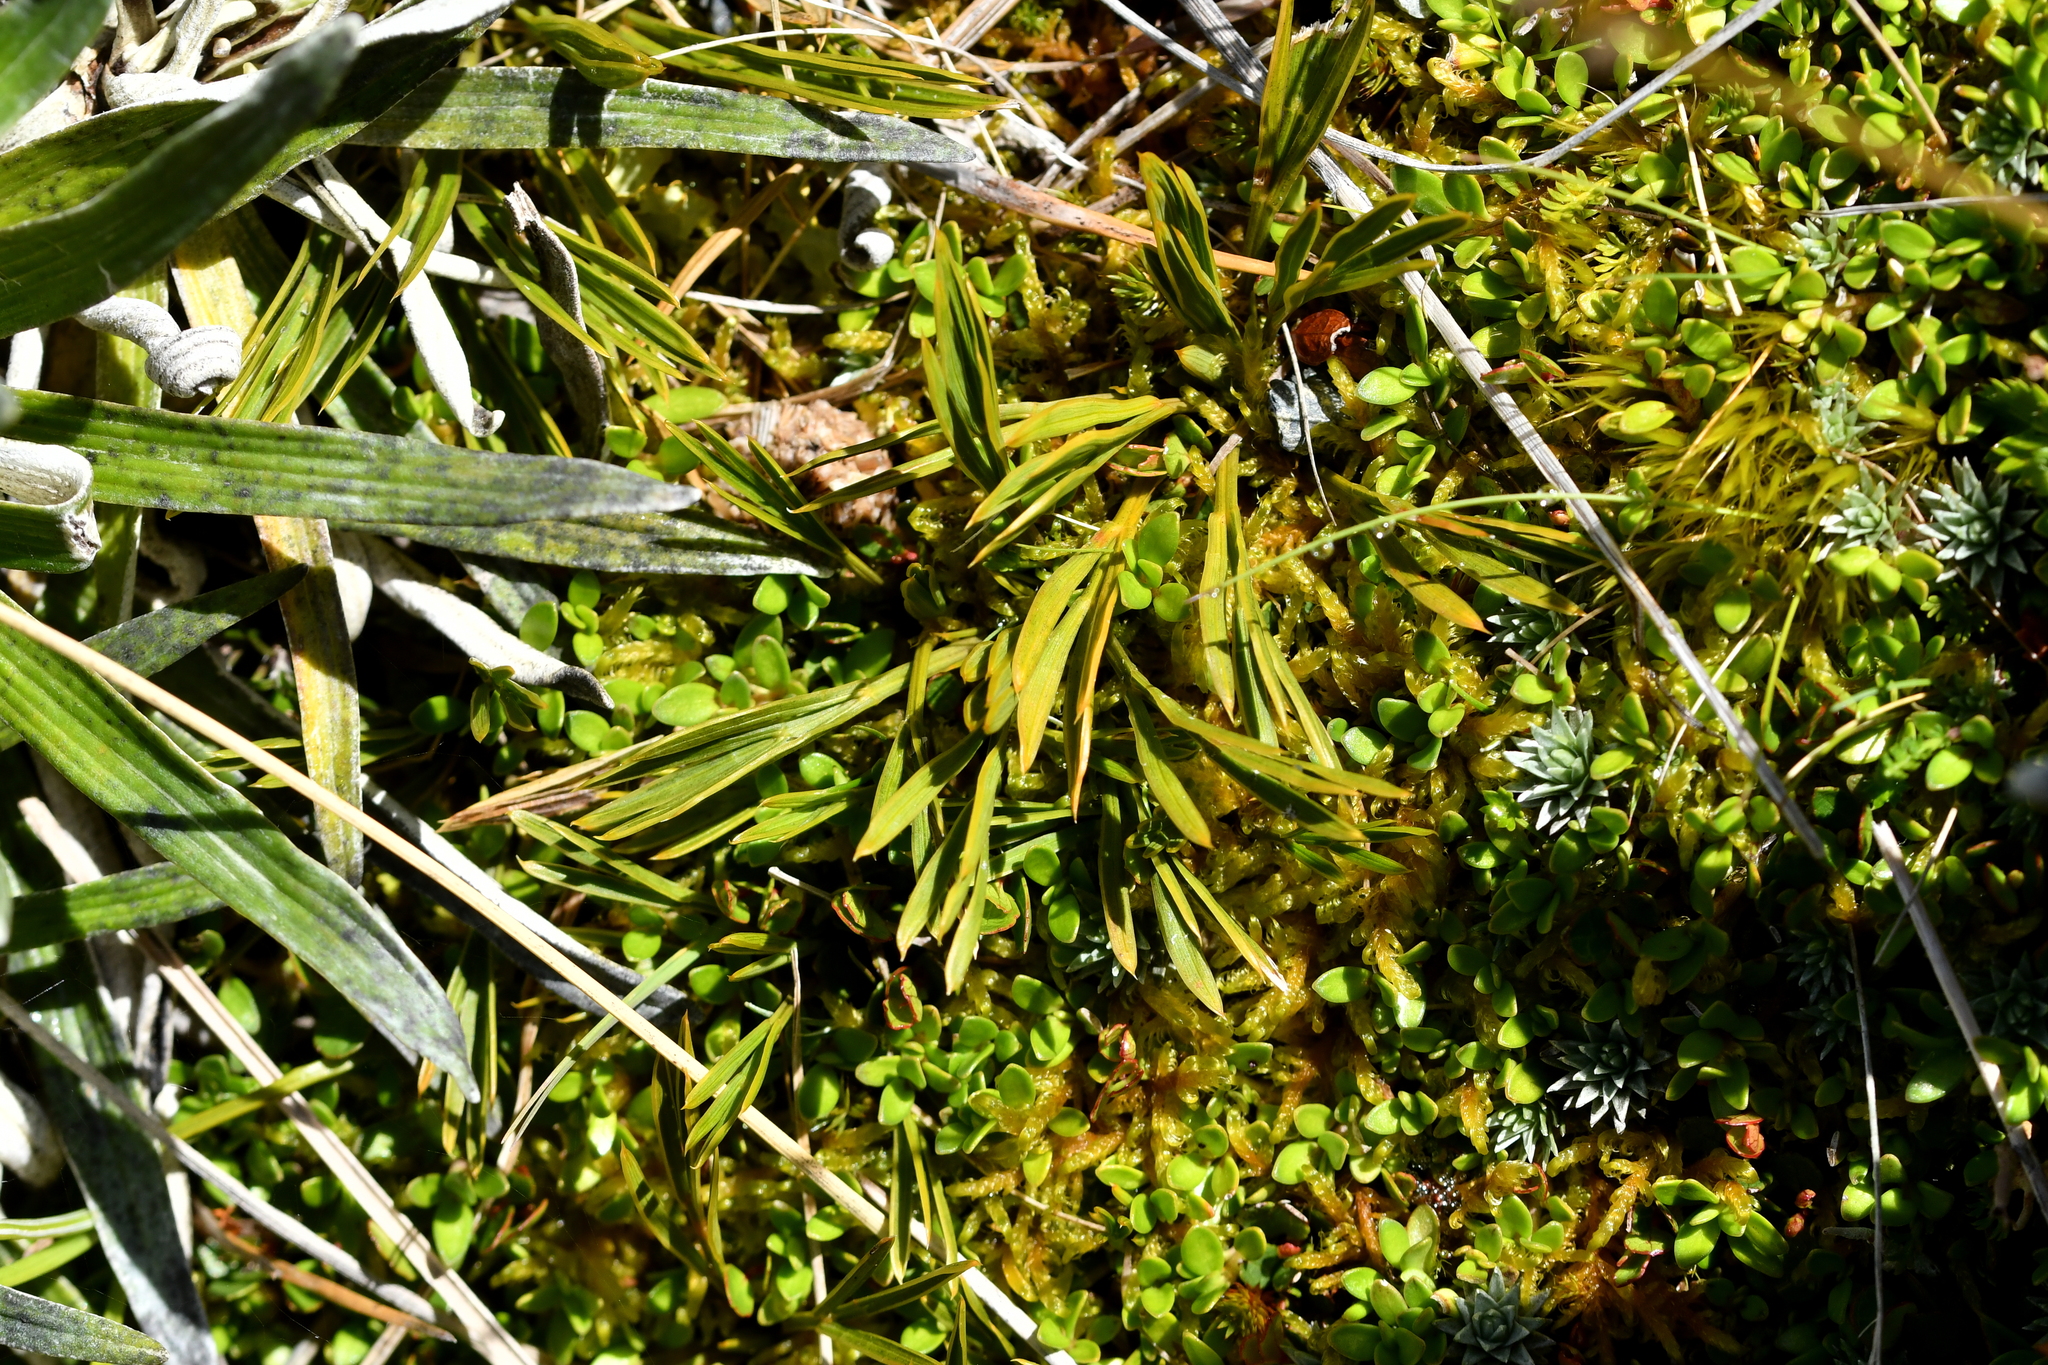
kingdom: Plantae
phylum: Tracheophyta
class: Magnoliopsida
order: Apiales
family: Apiaceae
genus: Aciphylla
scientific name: Aciphylla monroi
